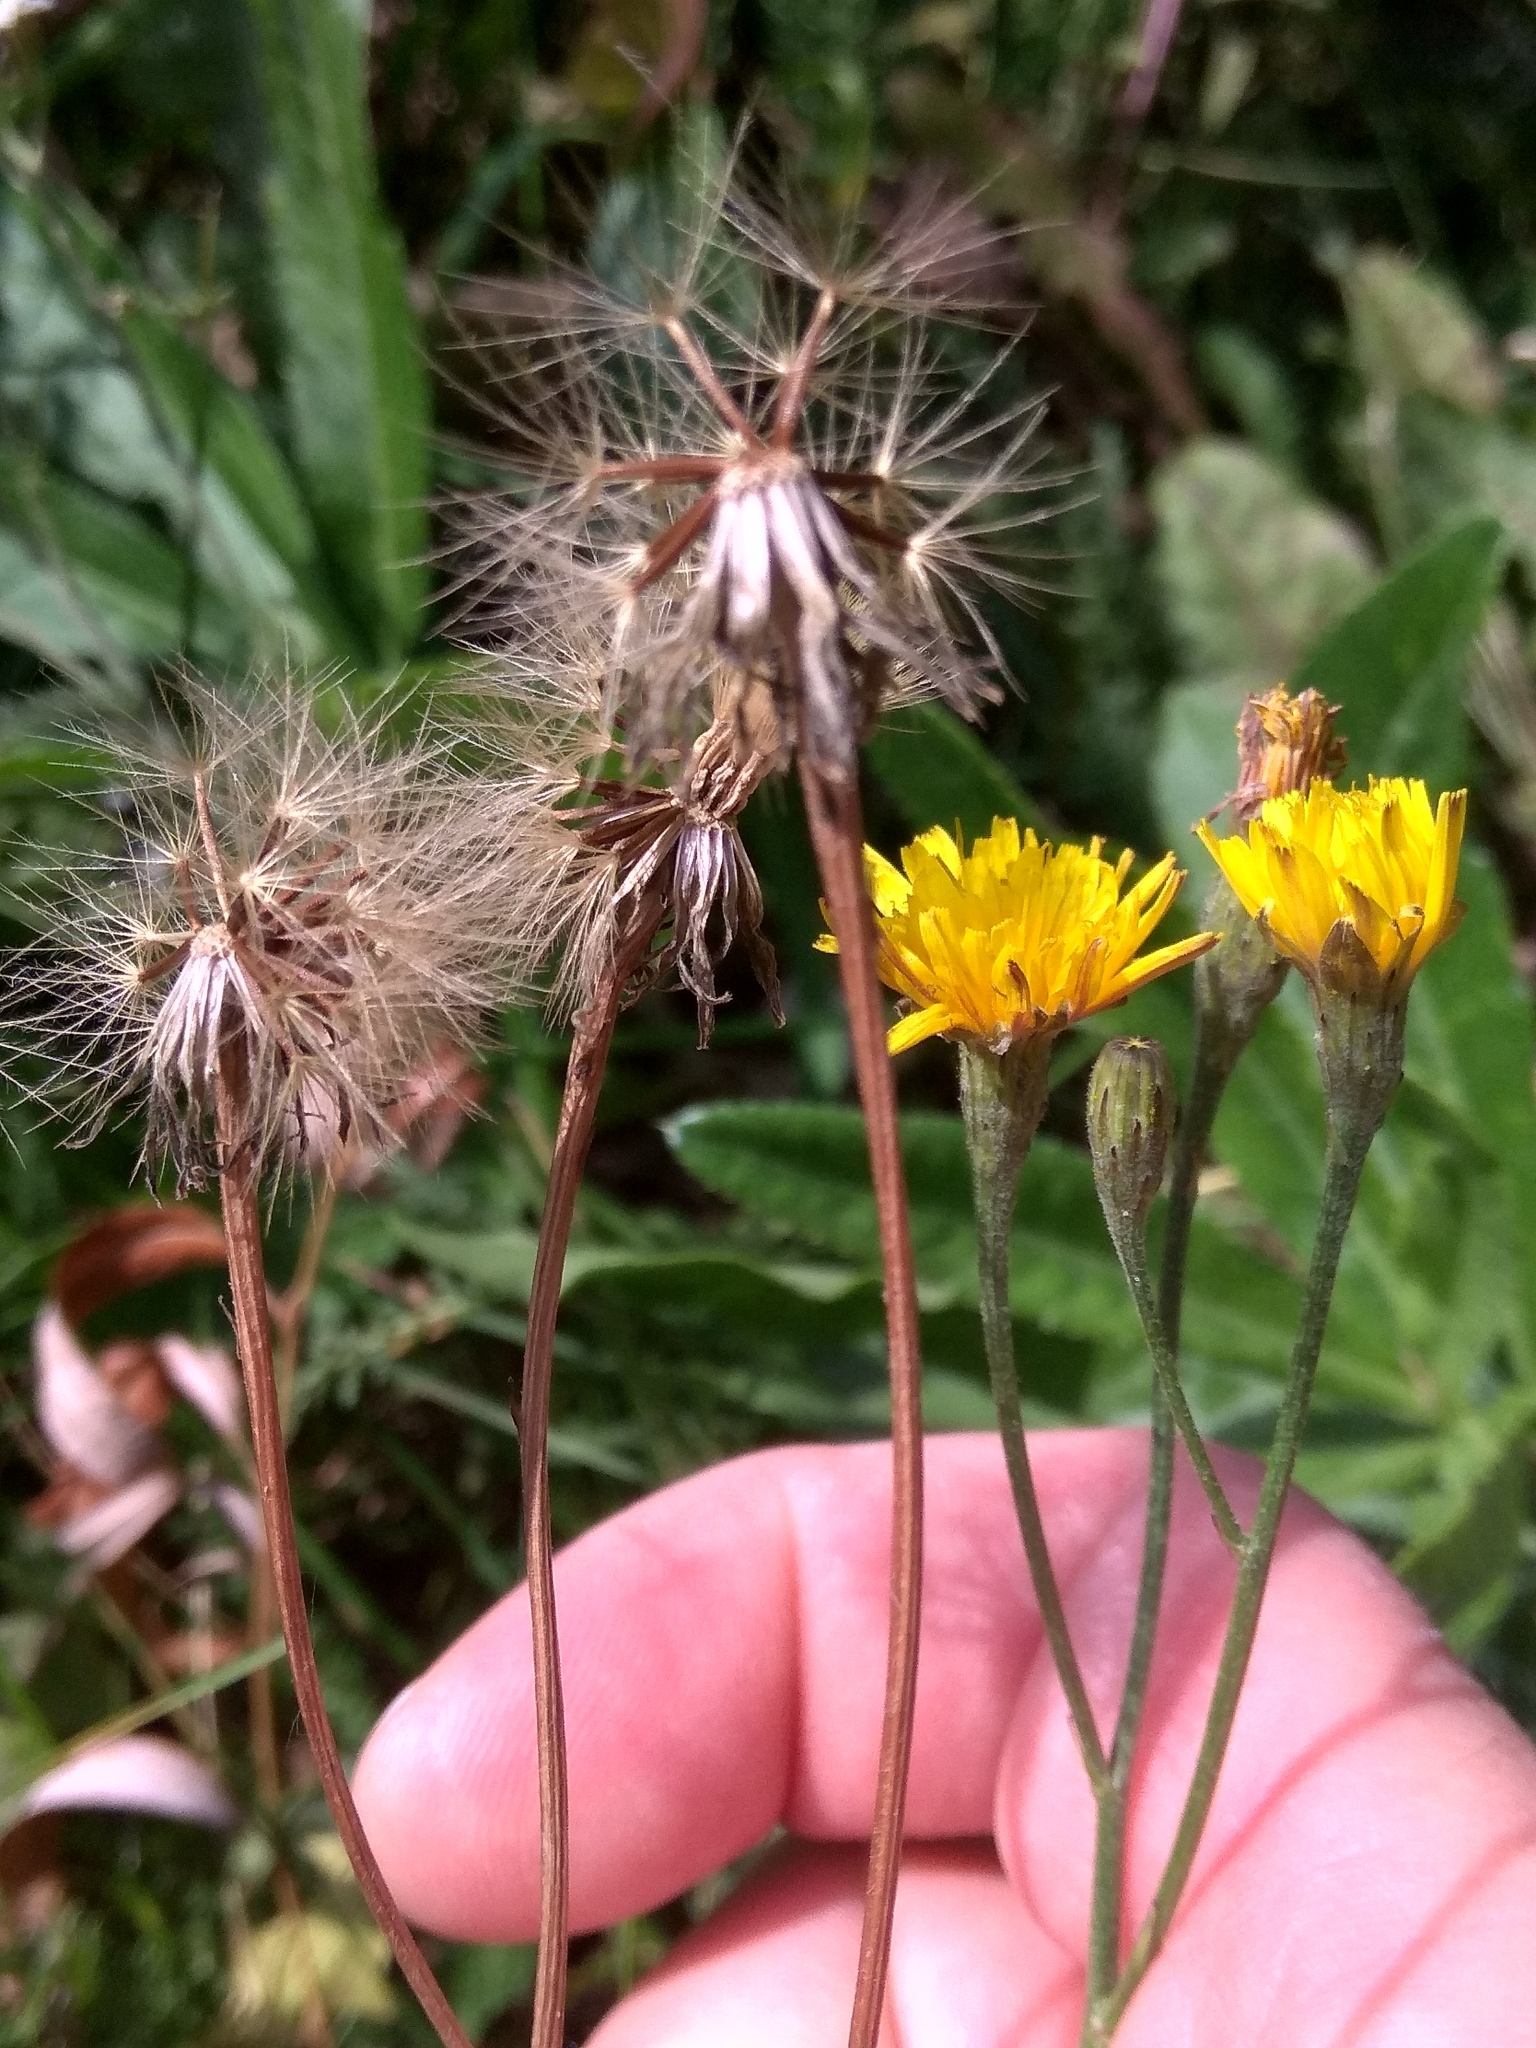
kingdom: Plantae
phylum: Tracheophyta
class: Magnoliopsida
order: Asterales
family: Asteraceae
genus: Scorzoneroides
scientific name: Scorzoneroides autumnalis
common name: Autumn hawkbit
